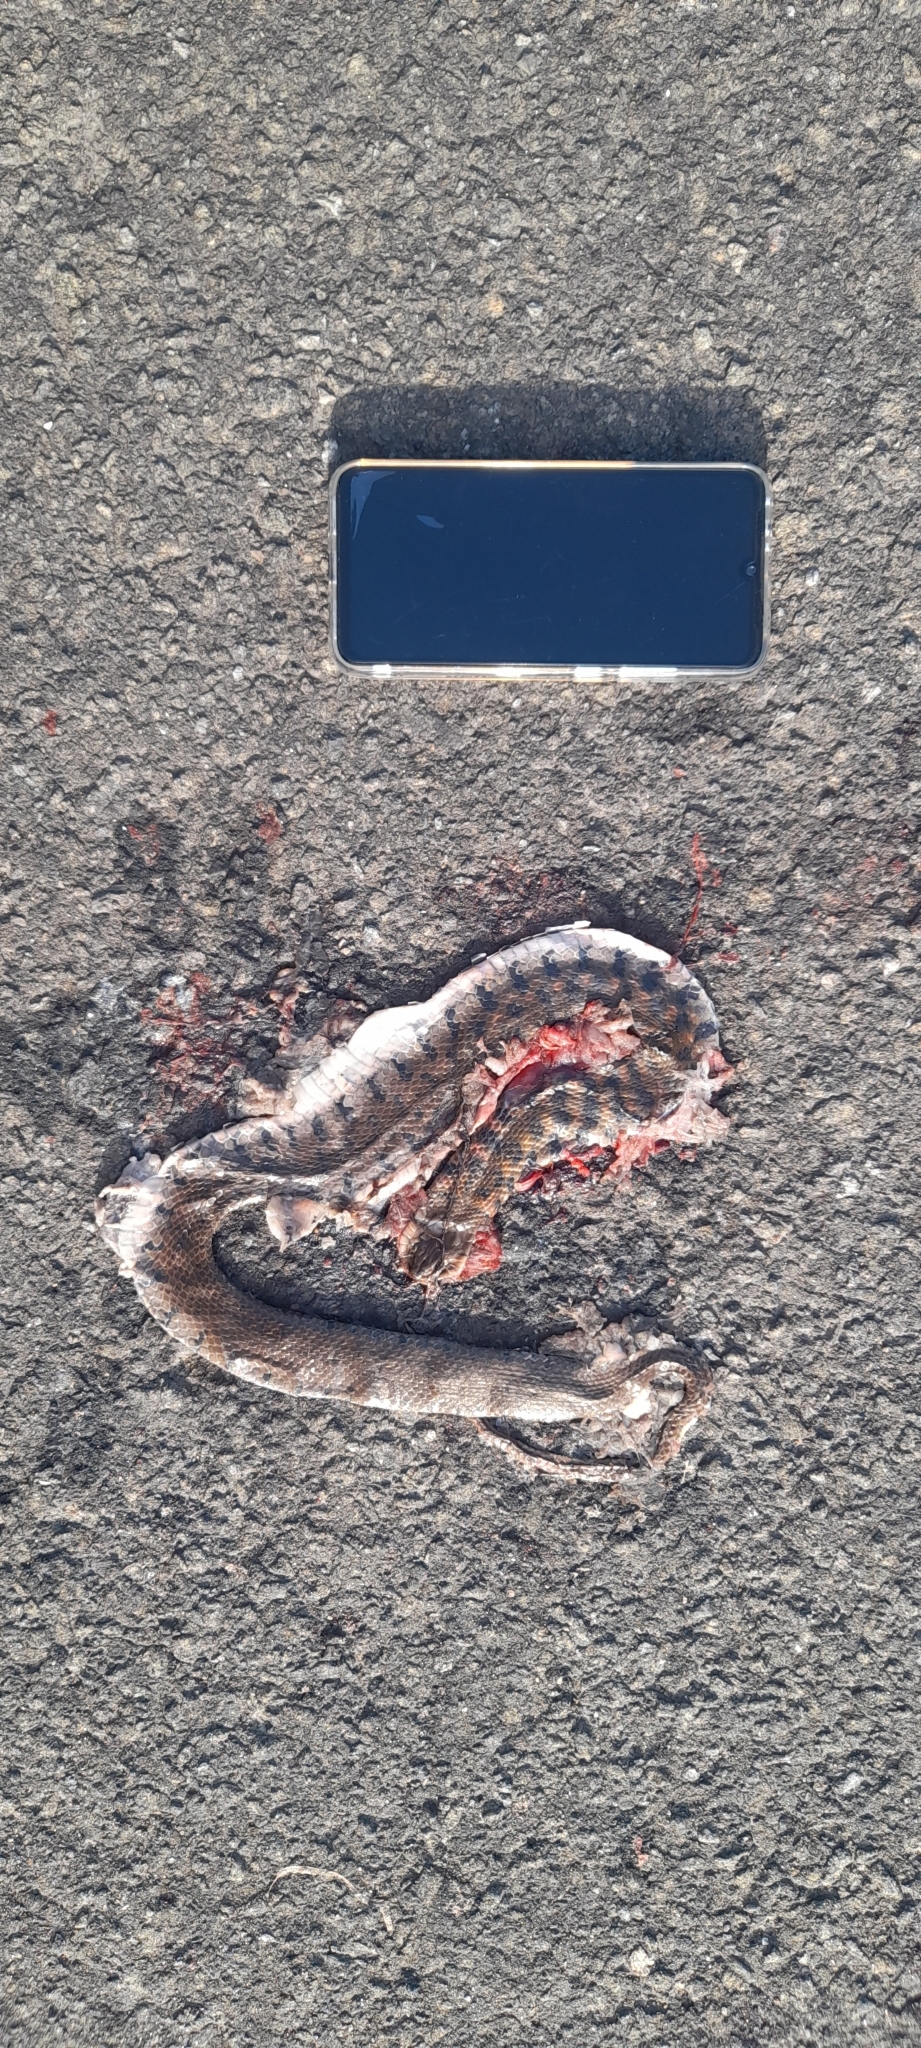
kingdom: Animalia
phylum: Chordata
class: Squamata
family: Colubridae
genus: Fowlea
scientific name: Fowlea piscator
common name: Asiatic water snake
